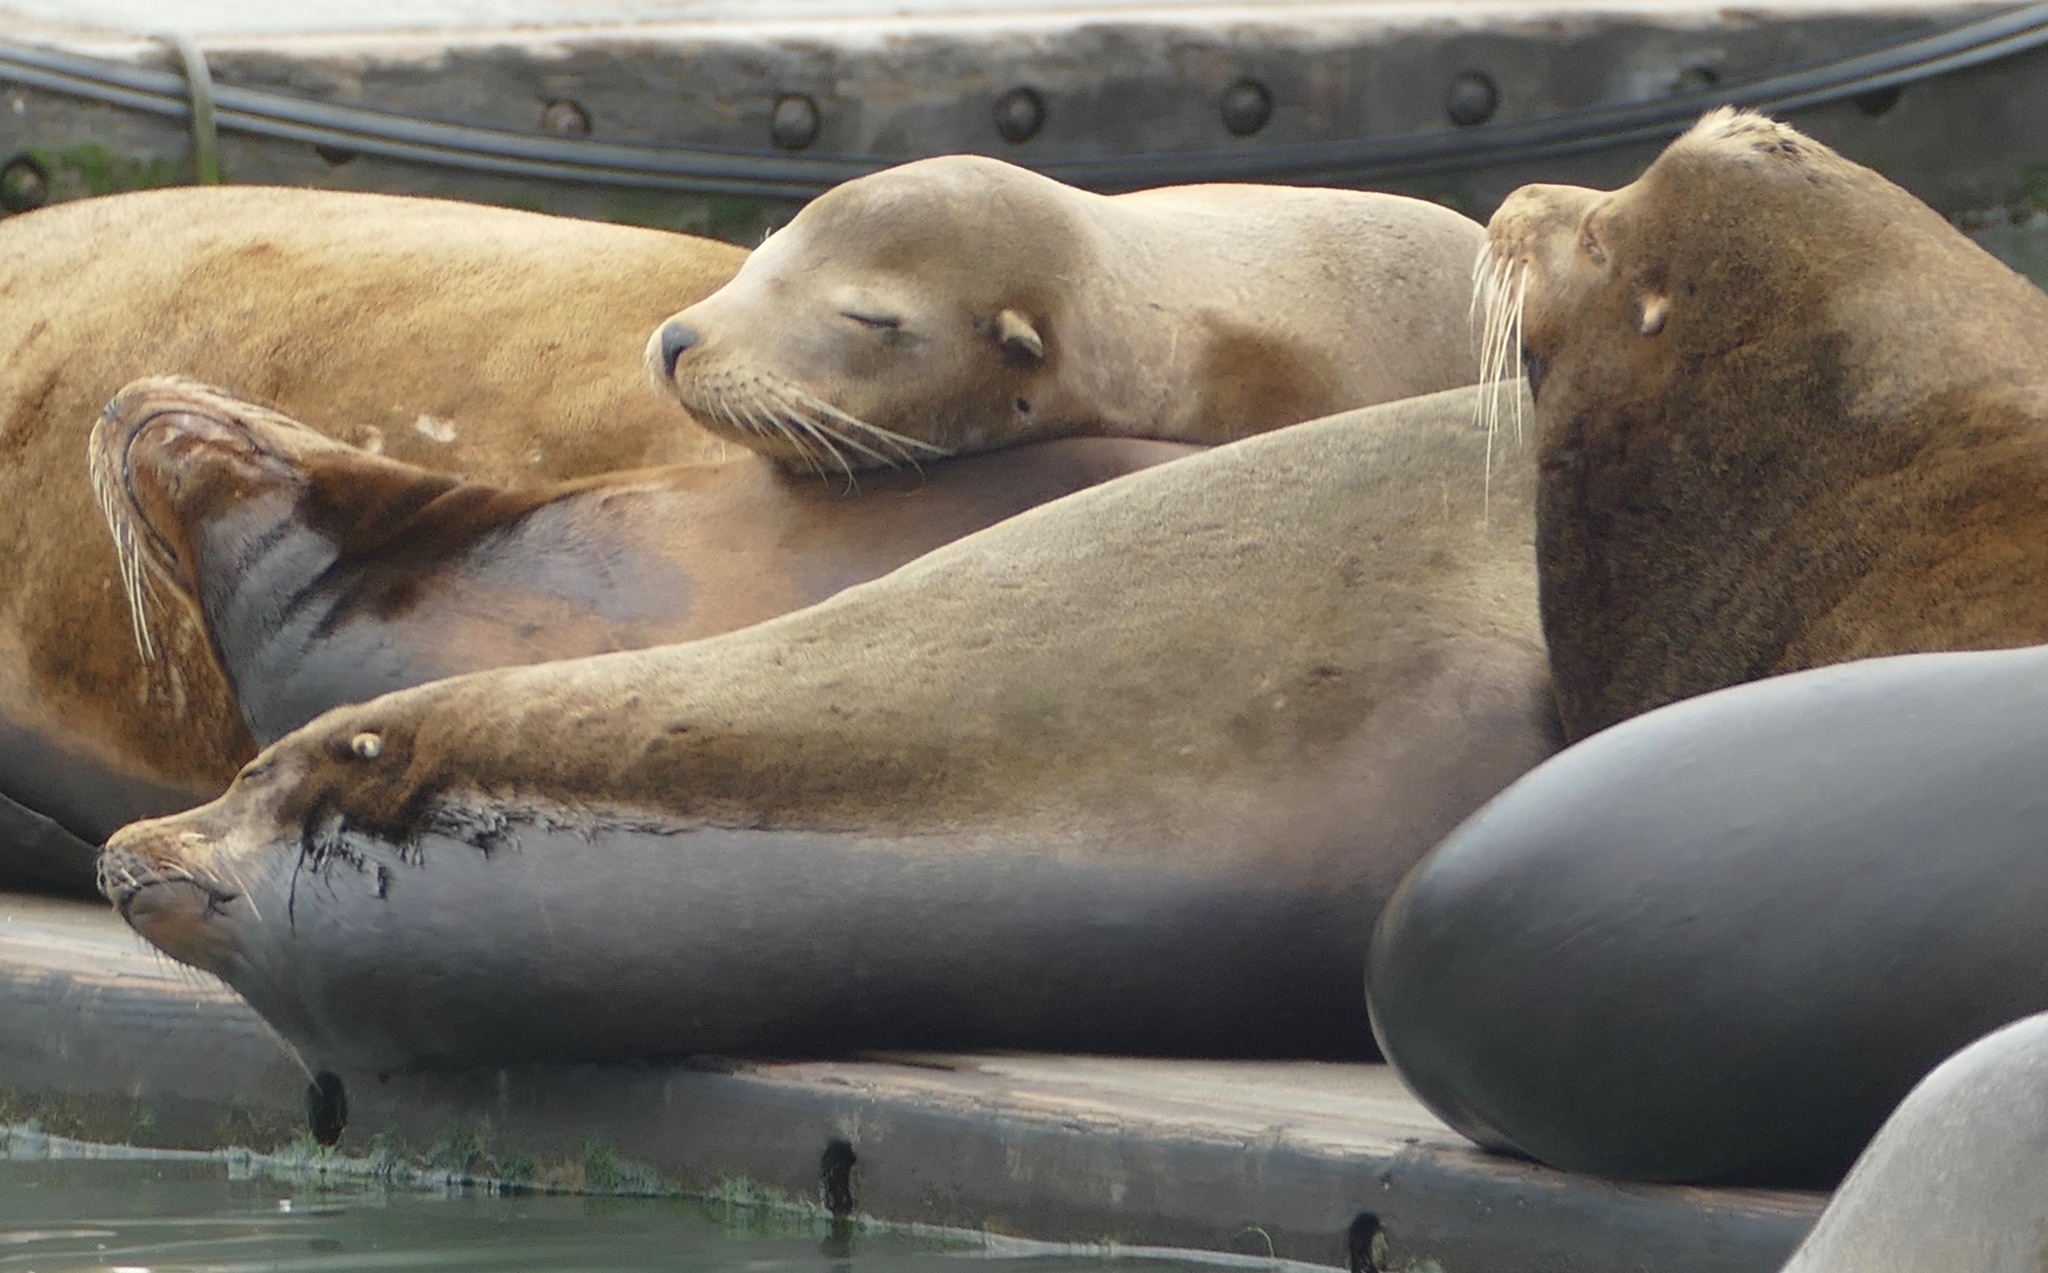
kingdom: Animalia
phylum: Chordata
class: Mammalia
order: Carnivora
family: Otariidae
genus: Zalophus
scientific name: Zalophus californianus
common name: California sea lion
